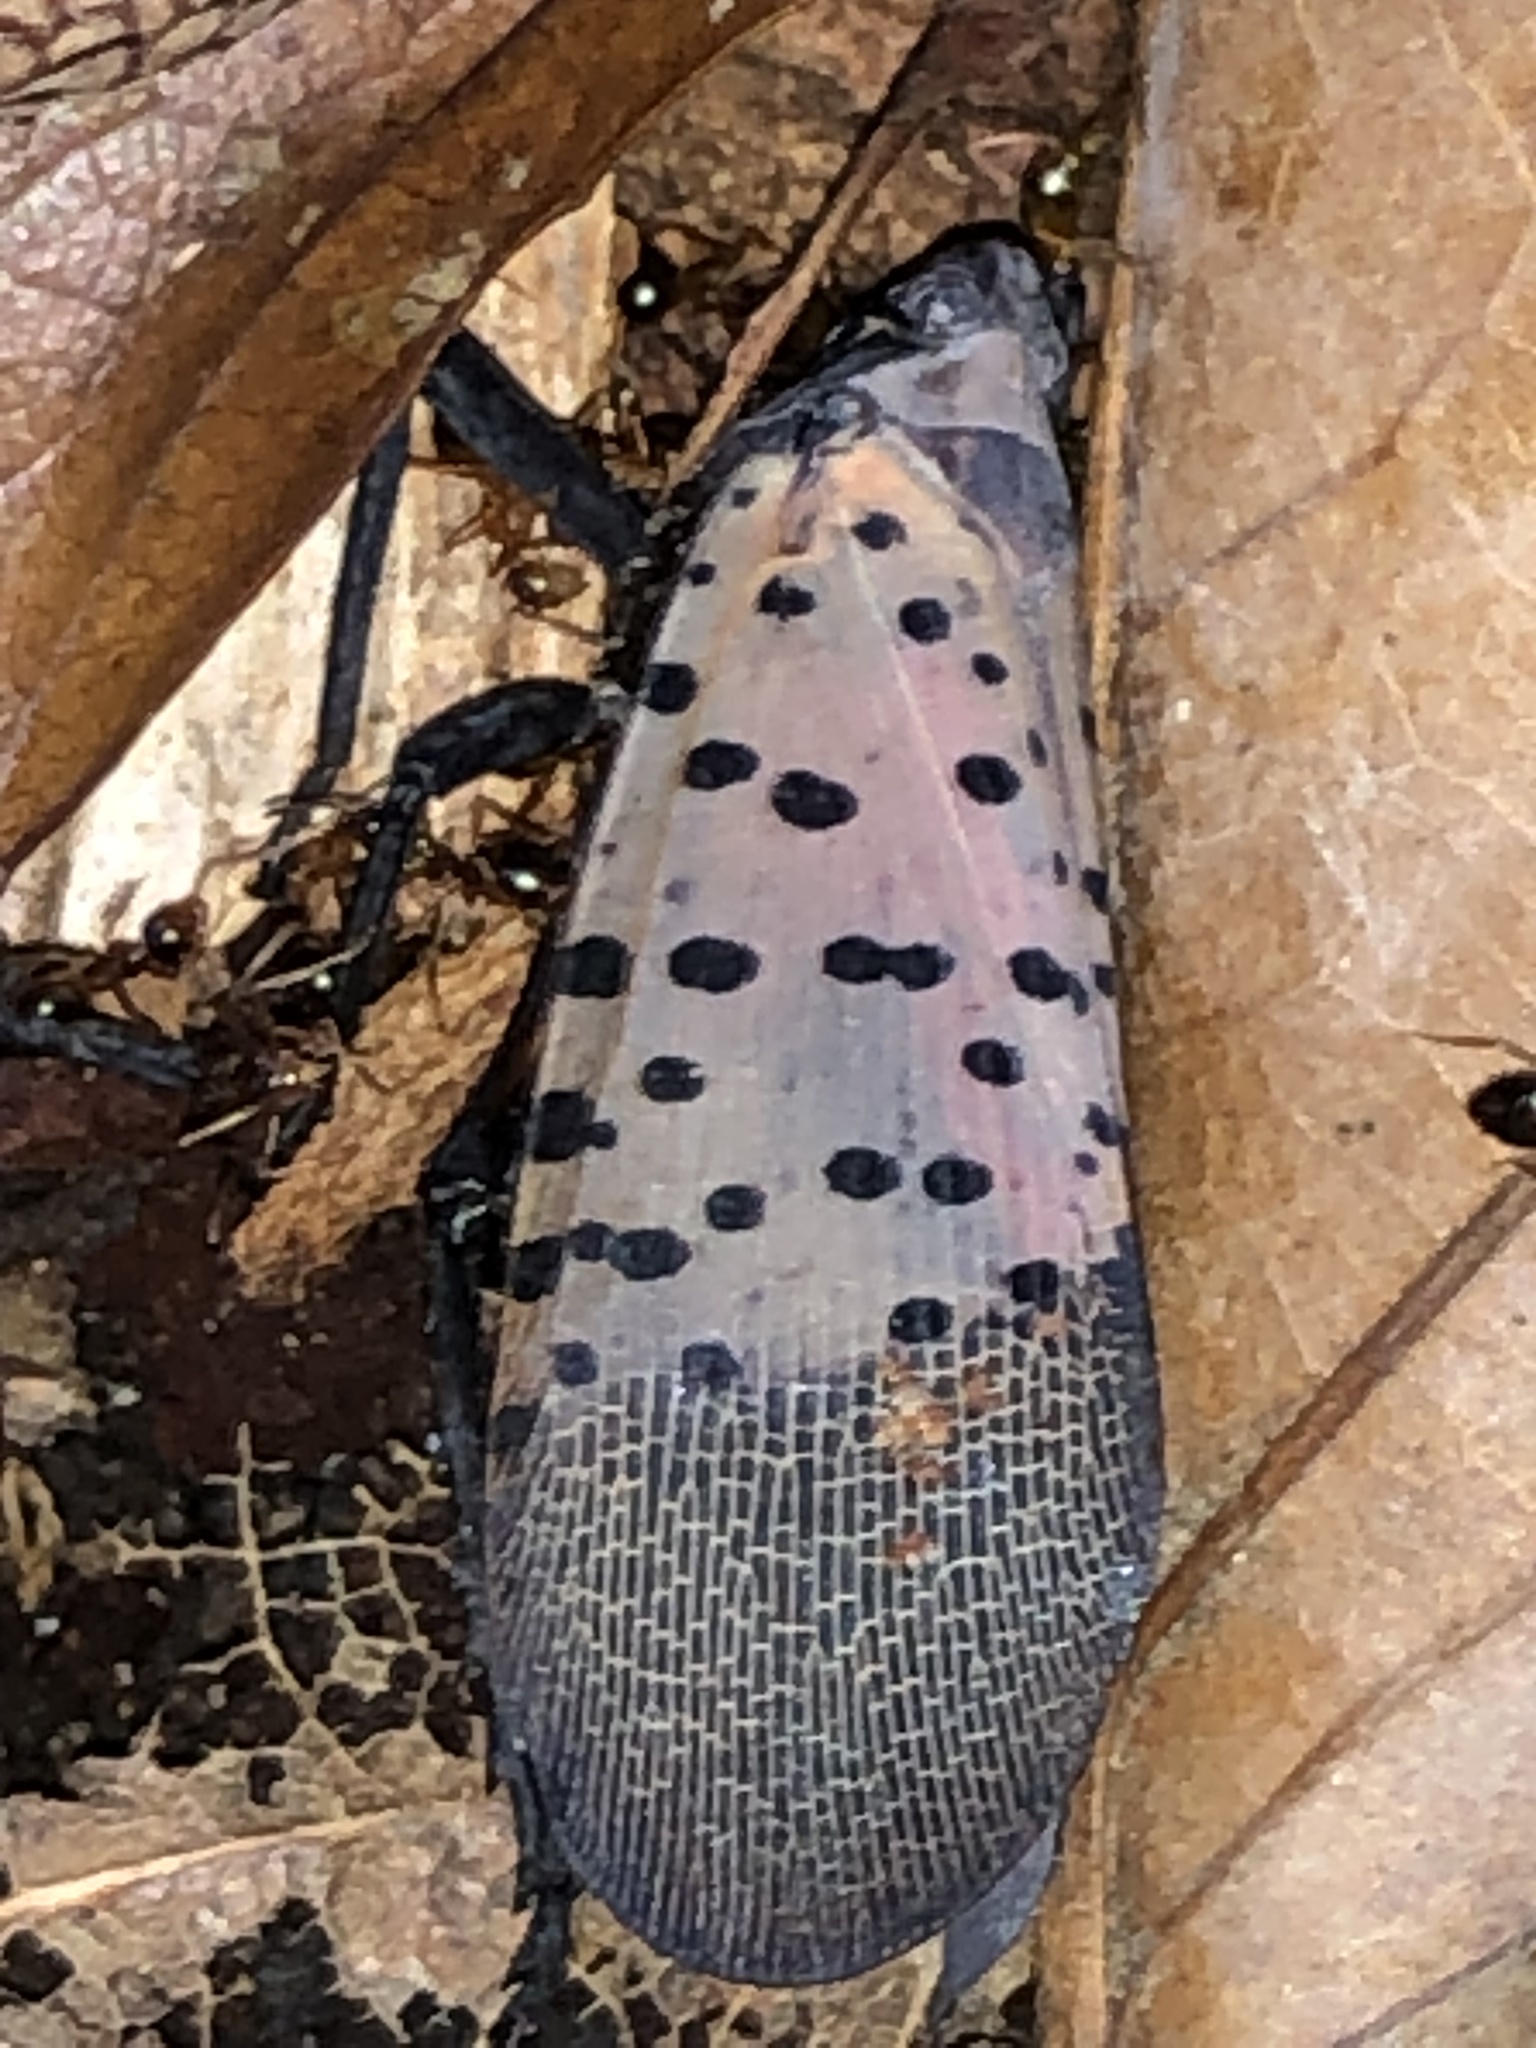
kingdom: Animalia
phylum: Arthropoda
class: Insecta
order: Hemiptera
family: Fulgoridae
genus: Lycorma
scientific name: Lycorma delicatula
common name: Spotted lanternfly
